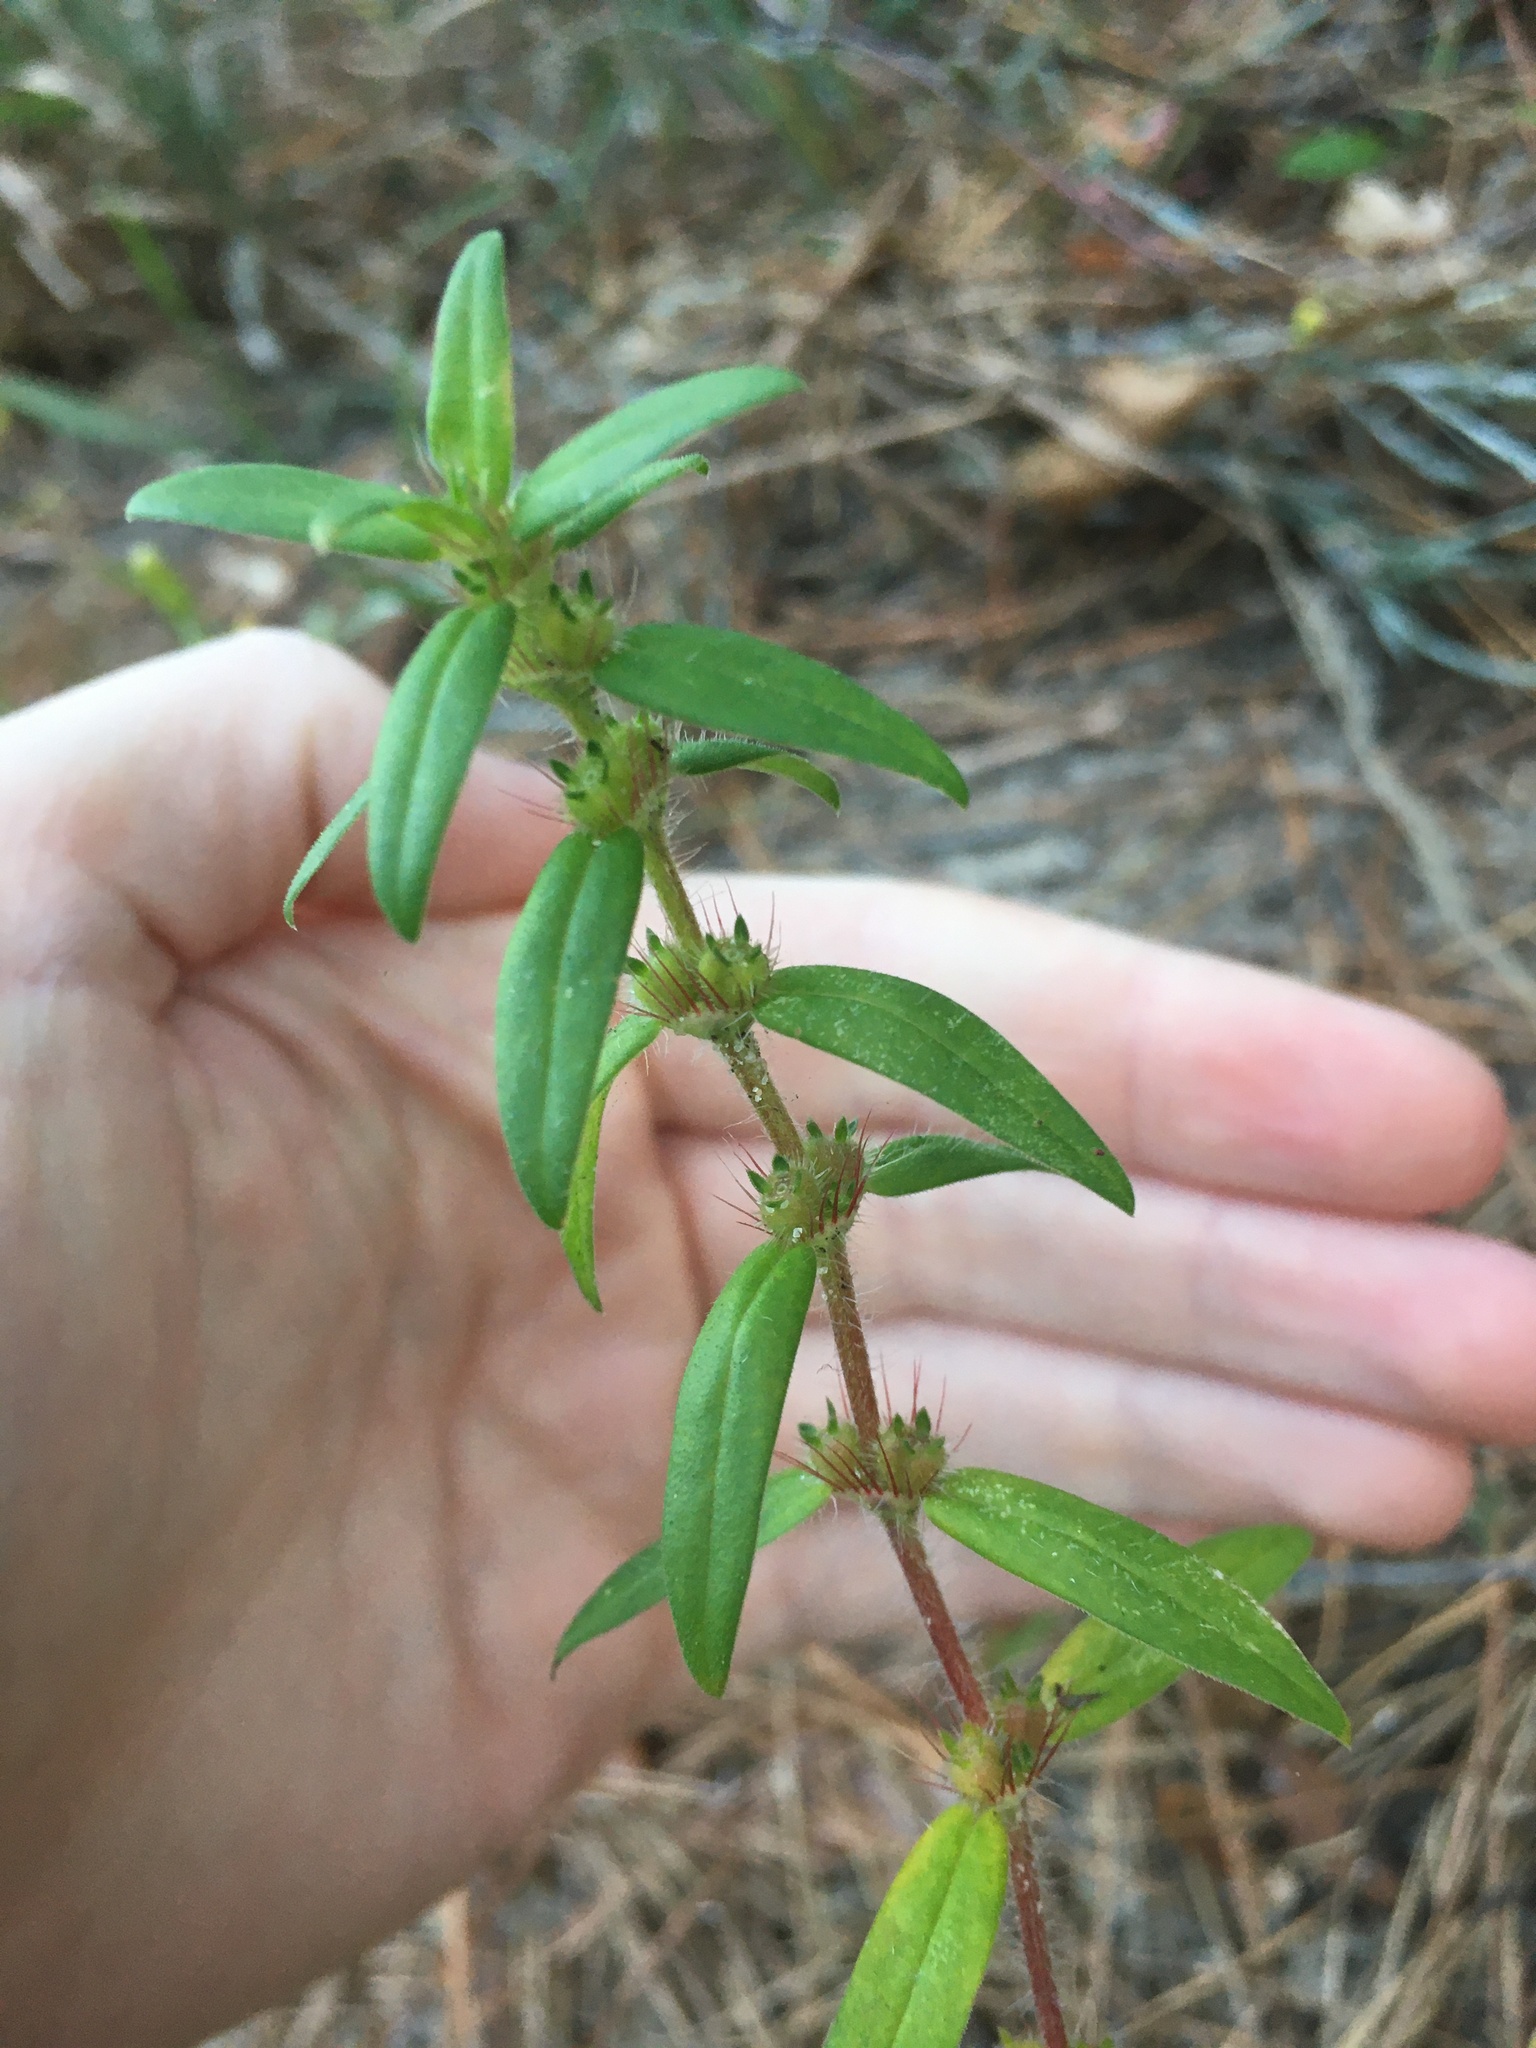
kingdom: Plantae
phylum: Tracheophyta
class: Magnoliopsida
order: Gentianales
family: Rubiaceae
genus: Hexasepalum
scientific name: Hexasepalum teres
